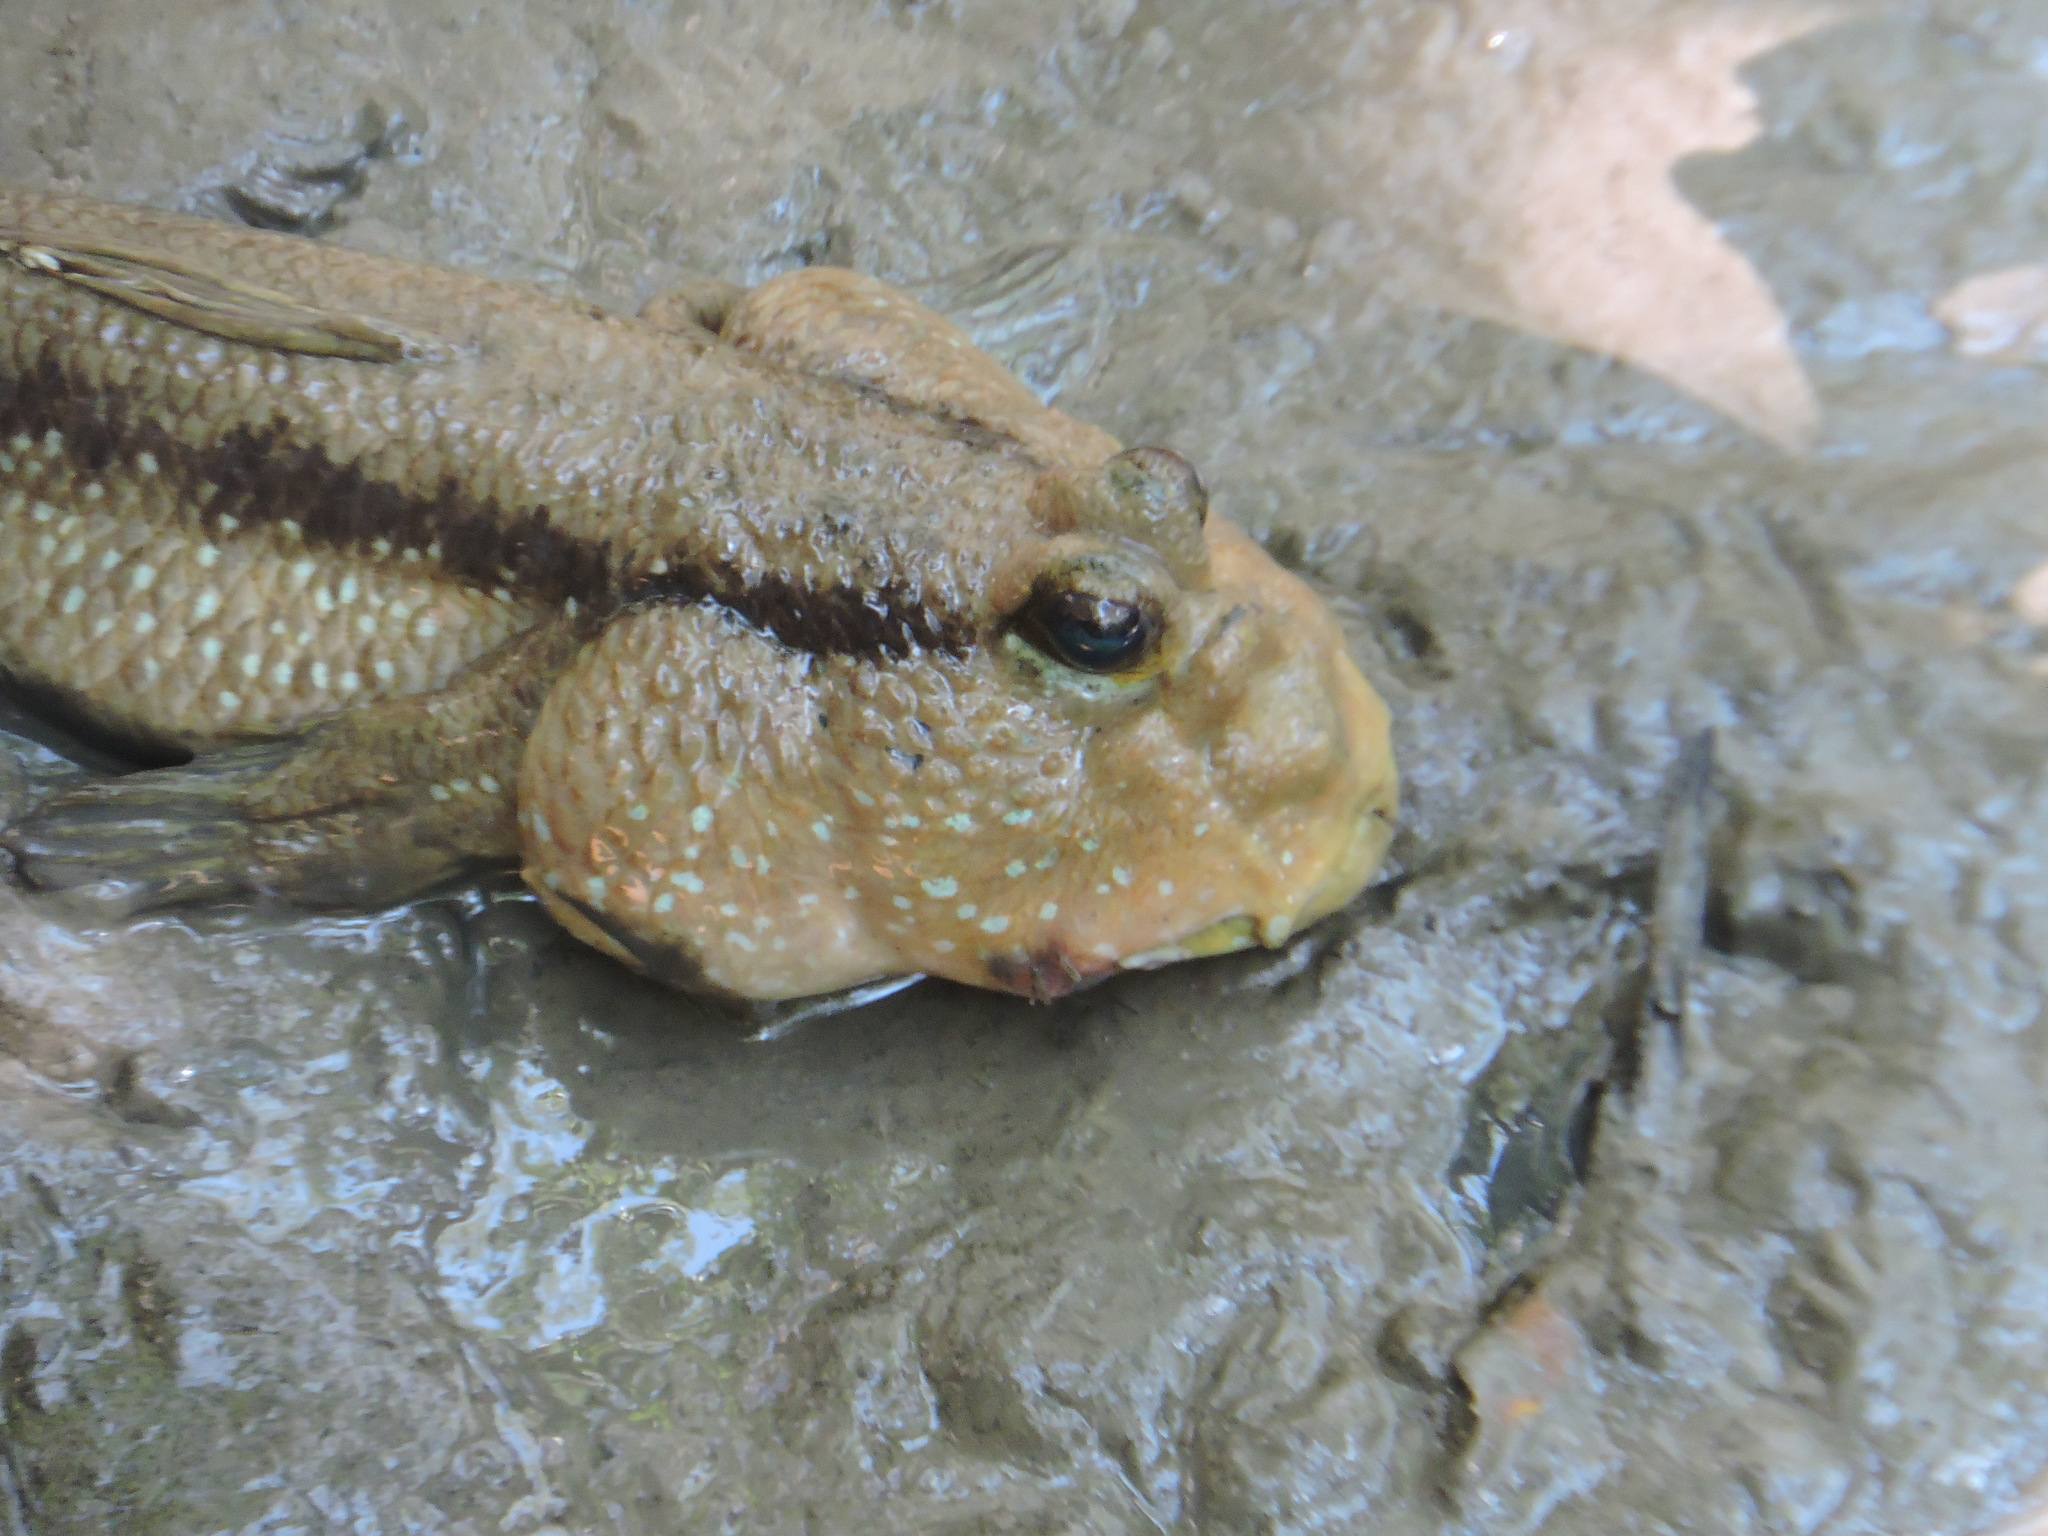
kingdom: Animalia
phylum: Chordata
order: Perciformes
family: Gobiidae
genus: Periophthalmodon
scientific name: Periophthalmodon schlosseri
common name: Giant mudskipper
